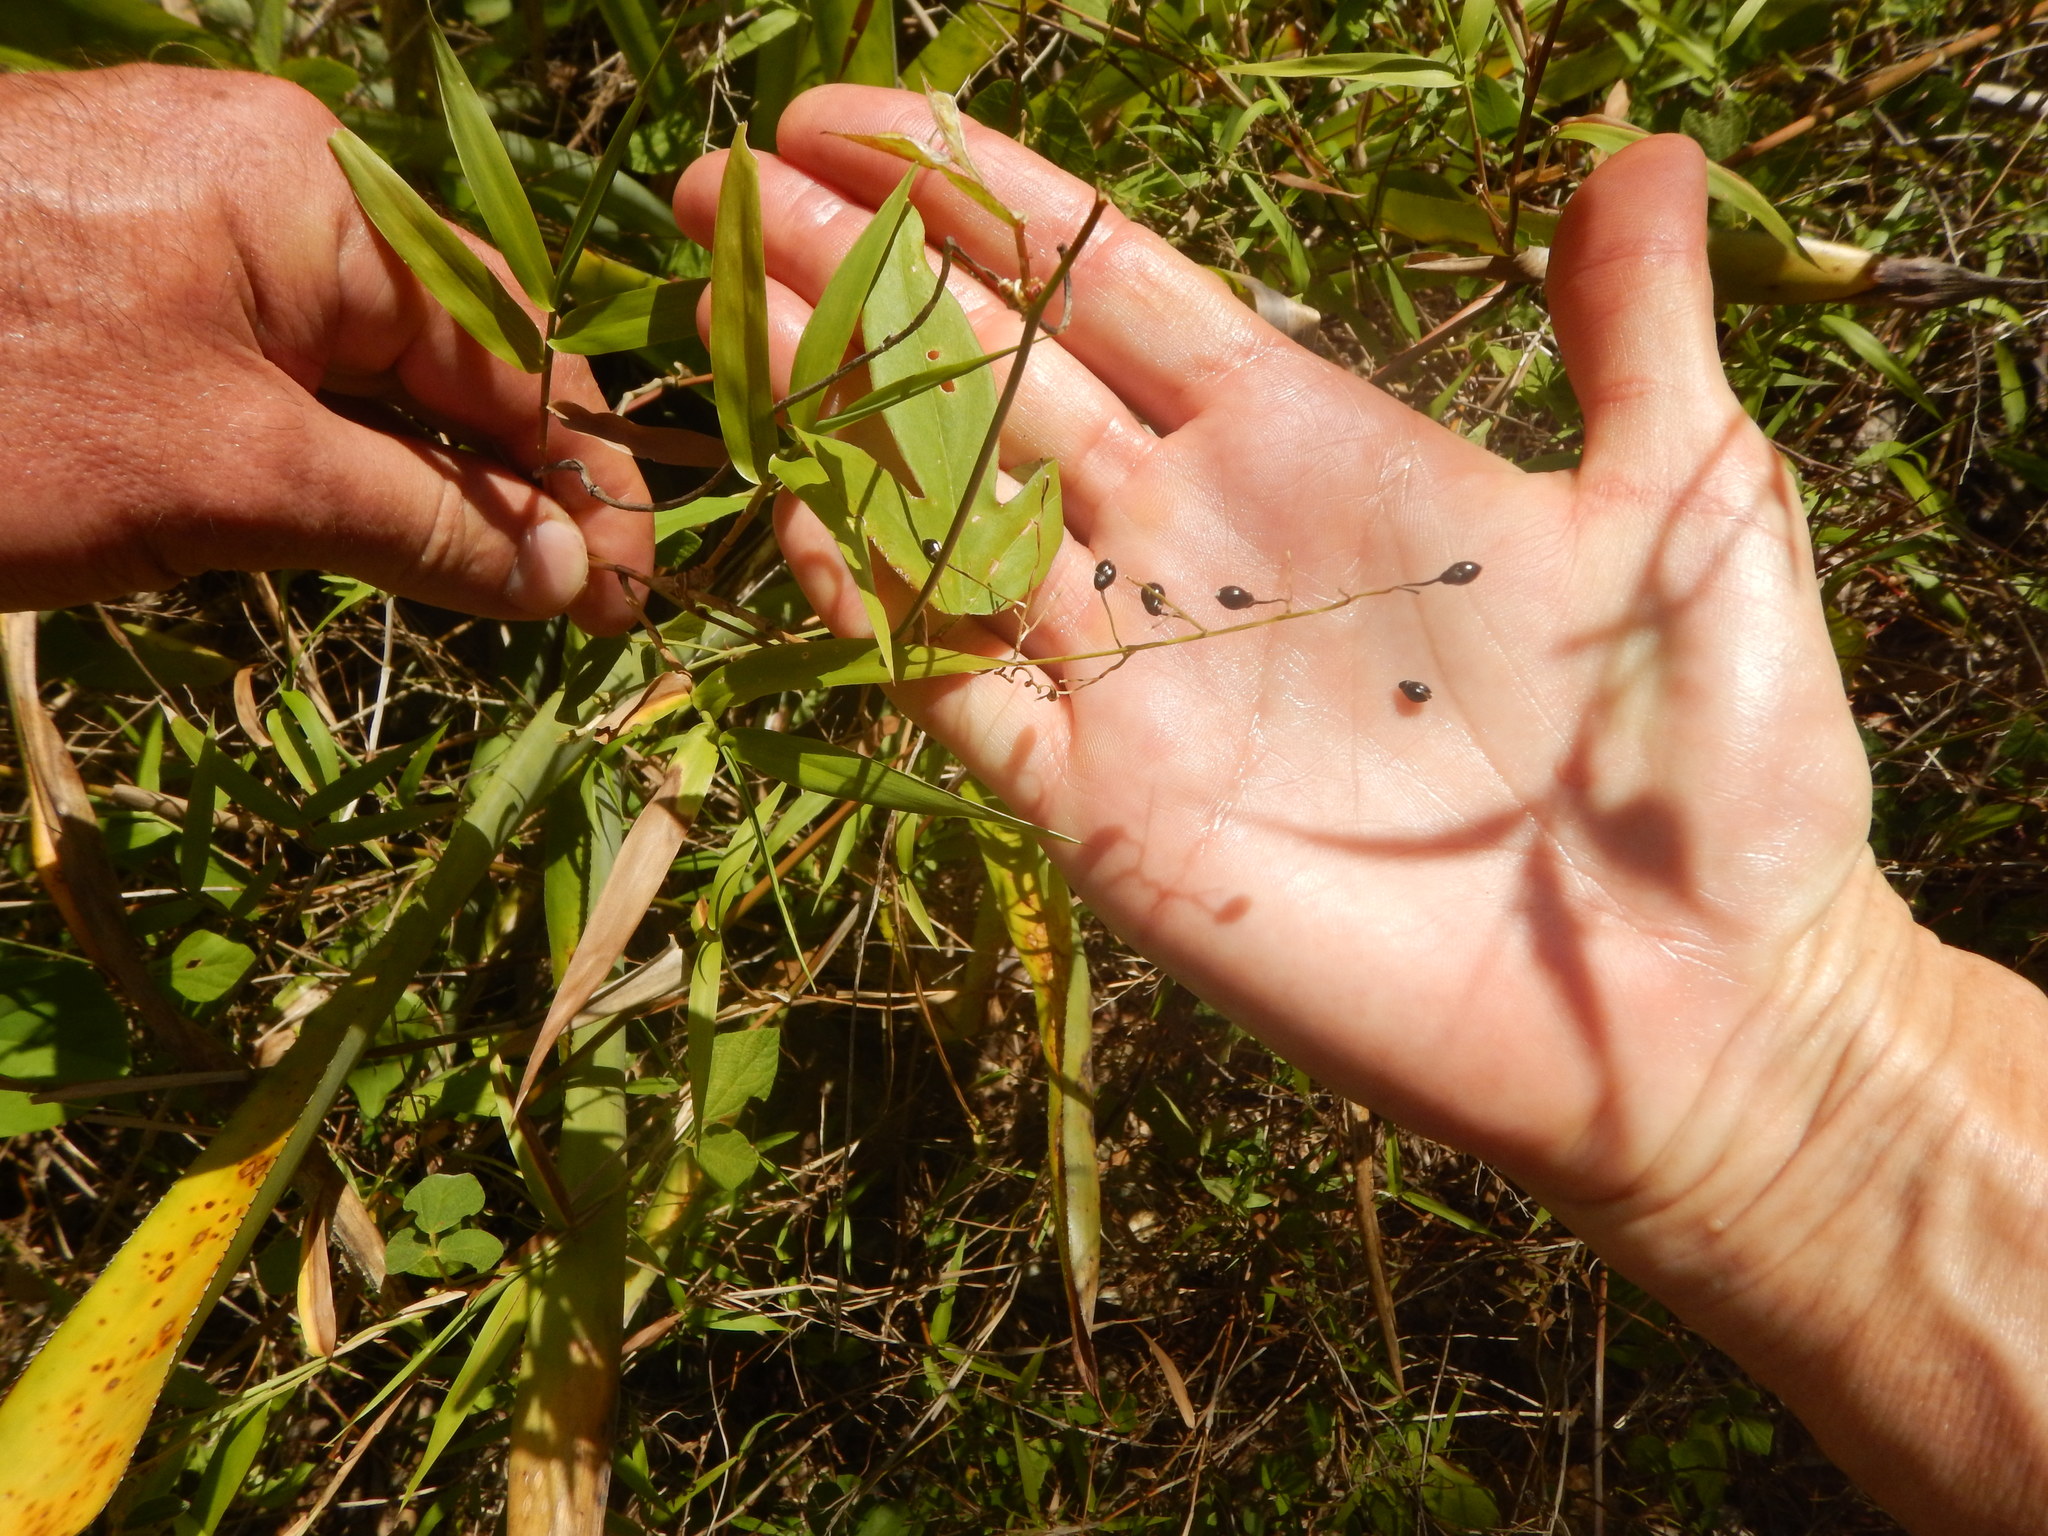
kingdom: Plantae
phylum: Tracheophyta
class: Liliopsida
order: Poales
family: Poaceae
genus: Lasiacis
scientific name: Lasiacis divaricata
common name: Smallcane
